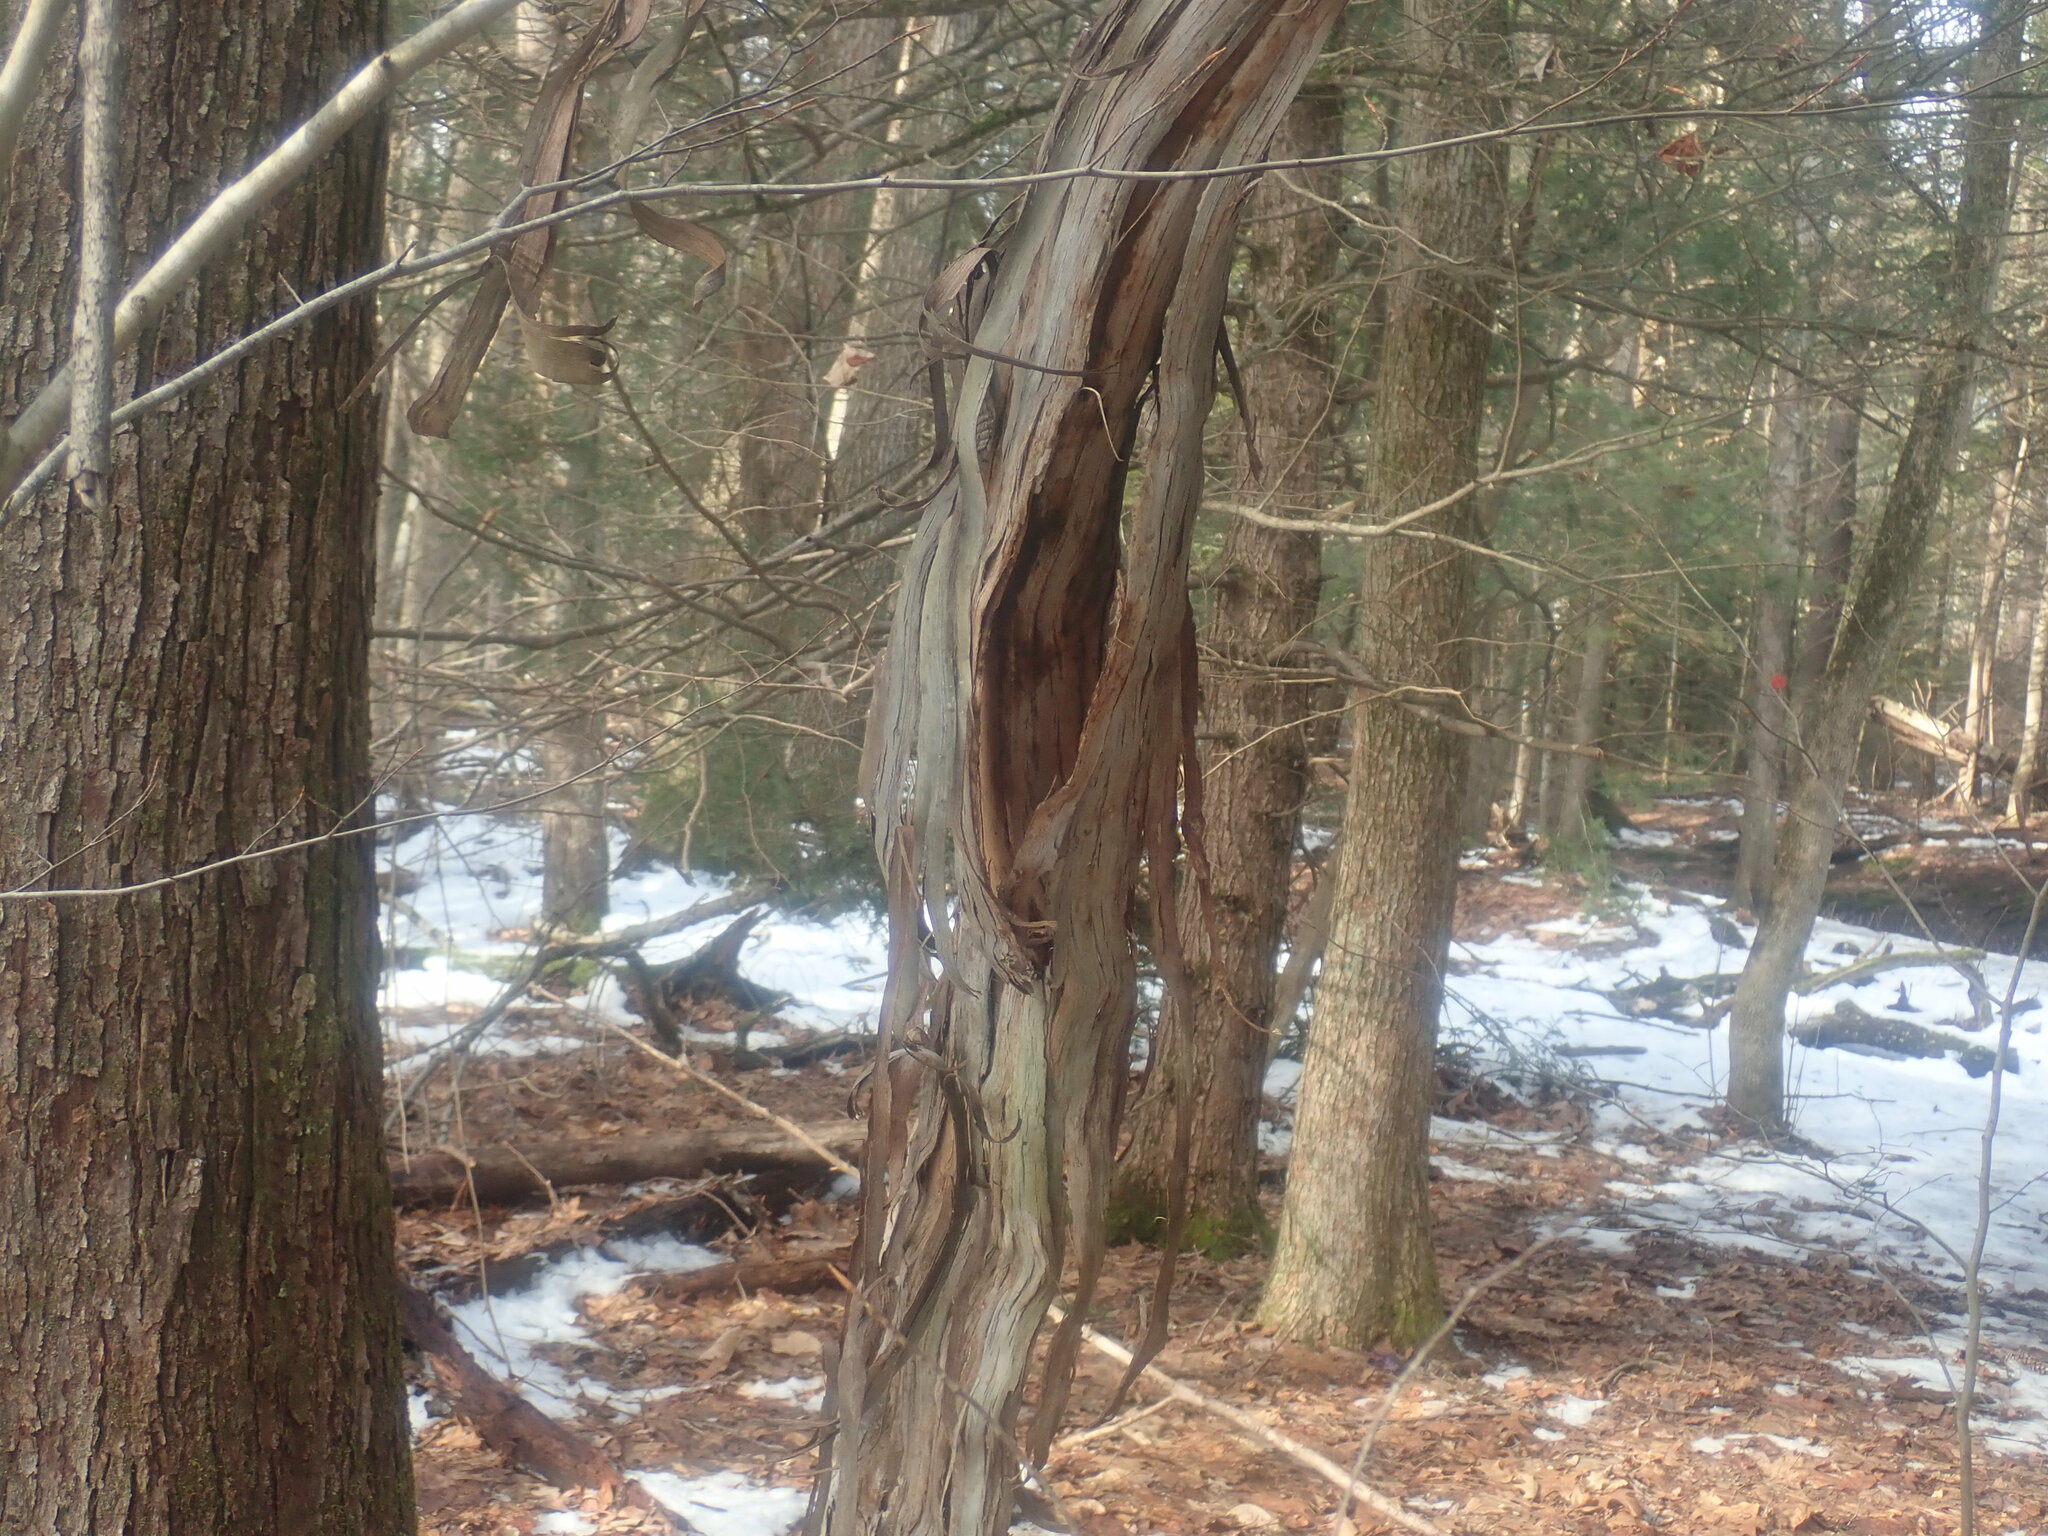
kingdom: Plantae
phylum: Tracheophyta
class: Magnoliopsida
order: Vitales
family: Vitaceae
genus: Vitis
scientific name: Vitis
